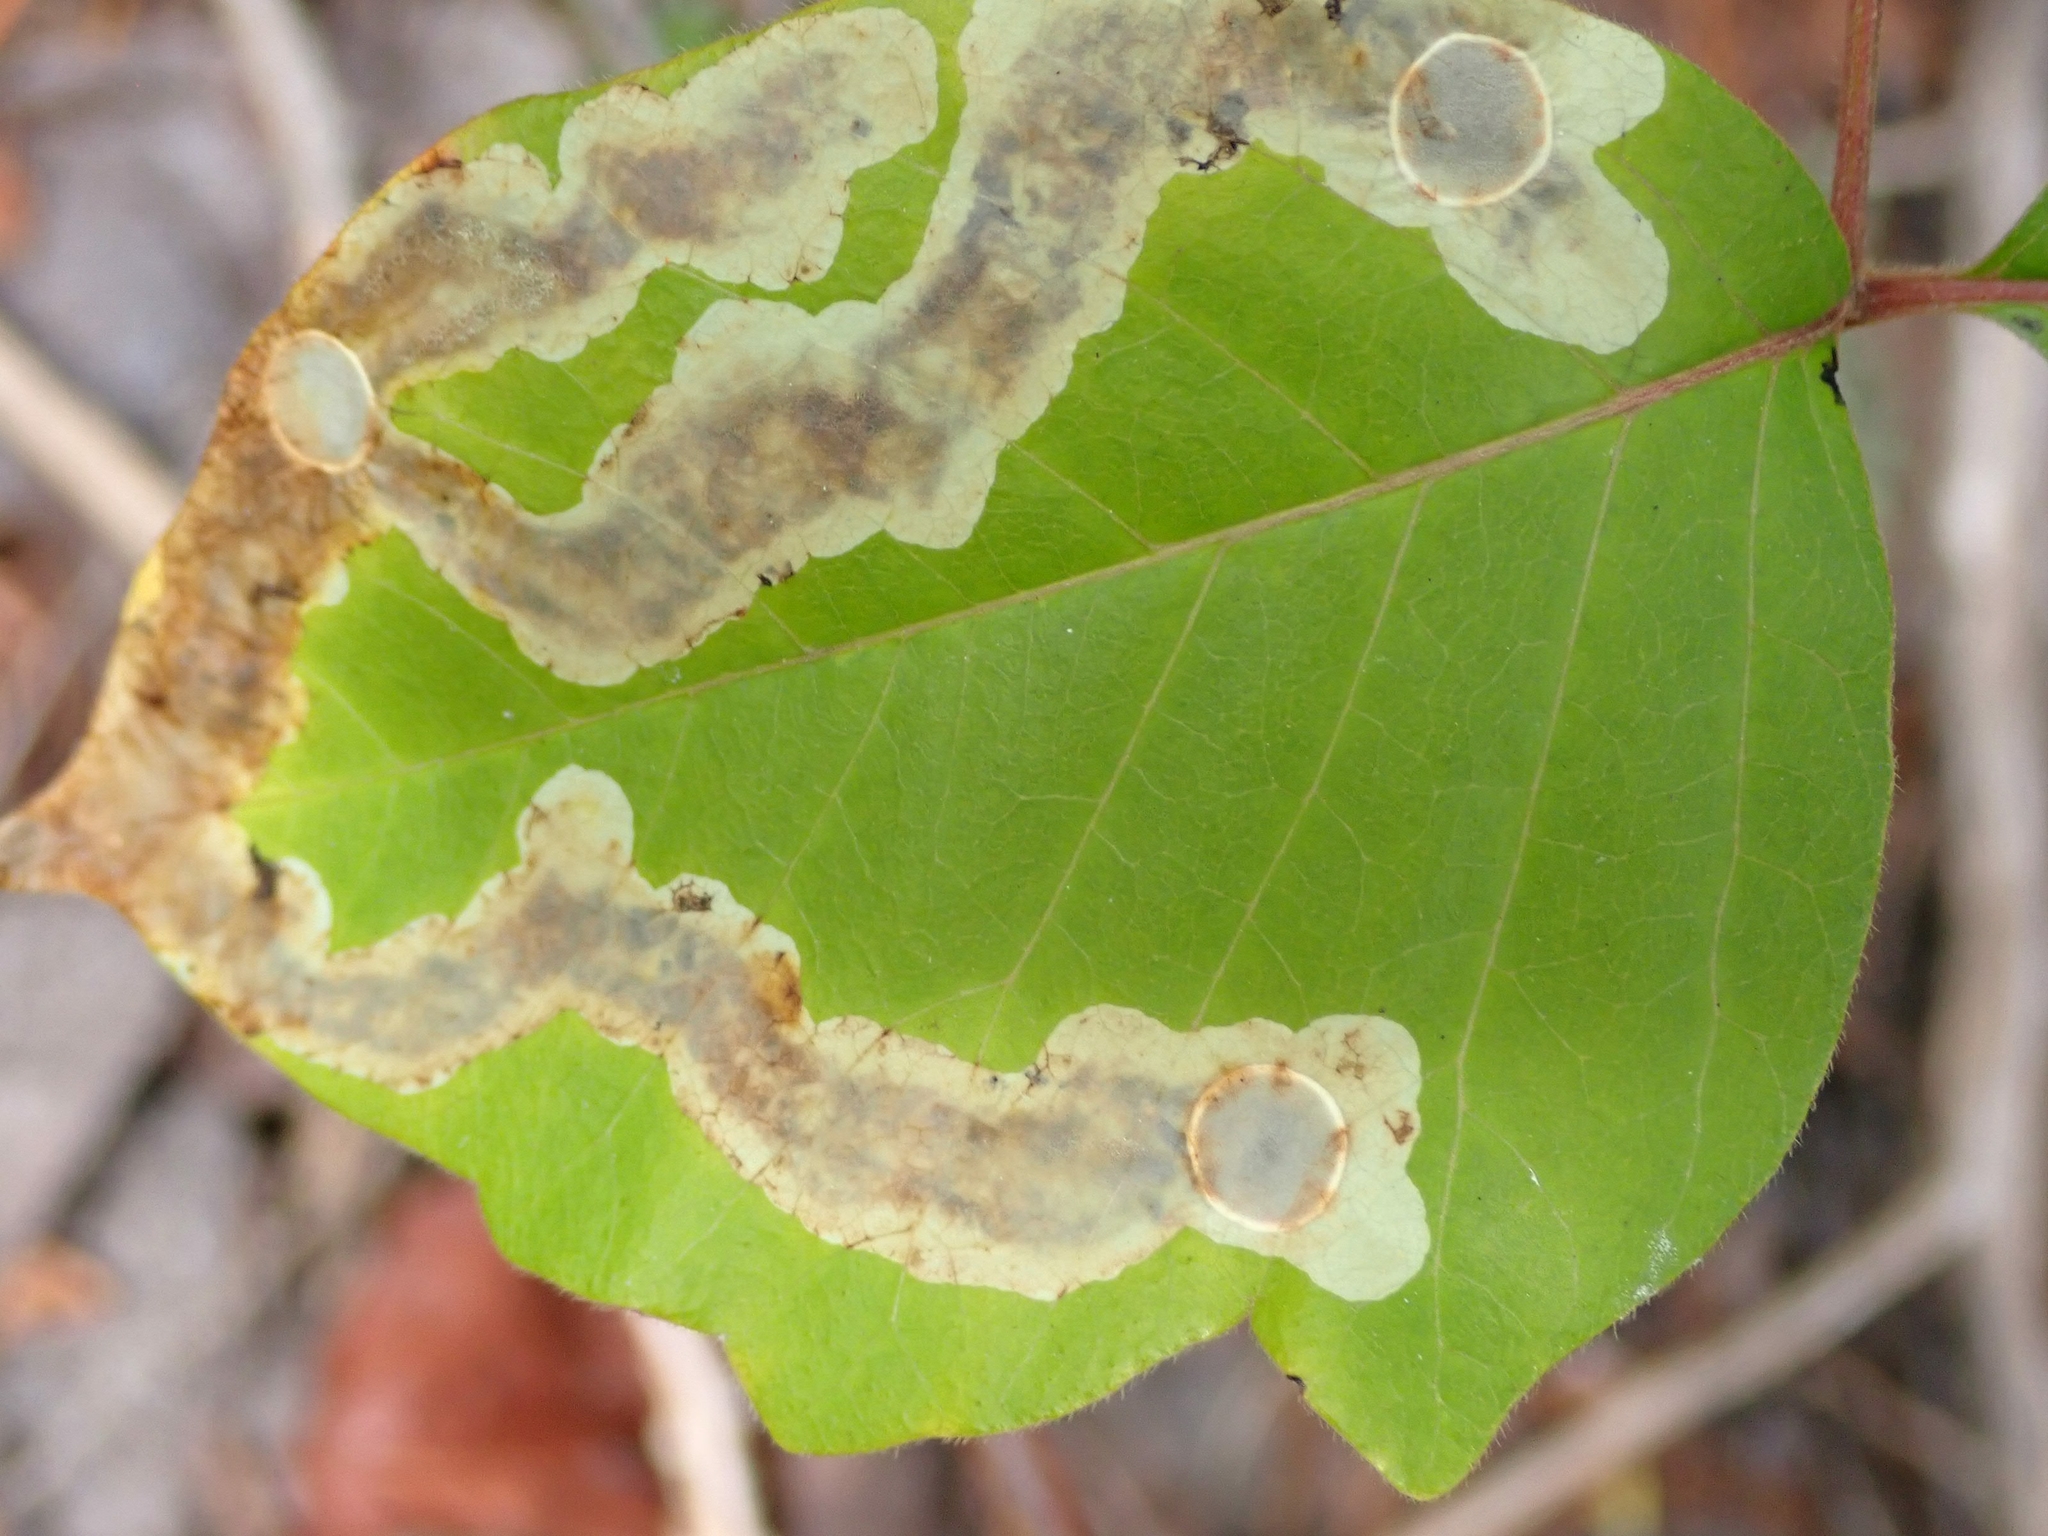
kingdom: Animalia
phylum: Arthropoda
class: Insecta
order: Lepidoptera
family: Gracillariidae
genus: Cameraria
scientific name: Cameraria guttifinitella
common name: Poison ivy leaf-miner moth
